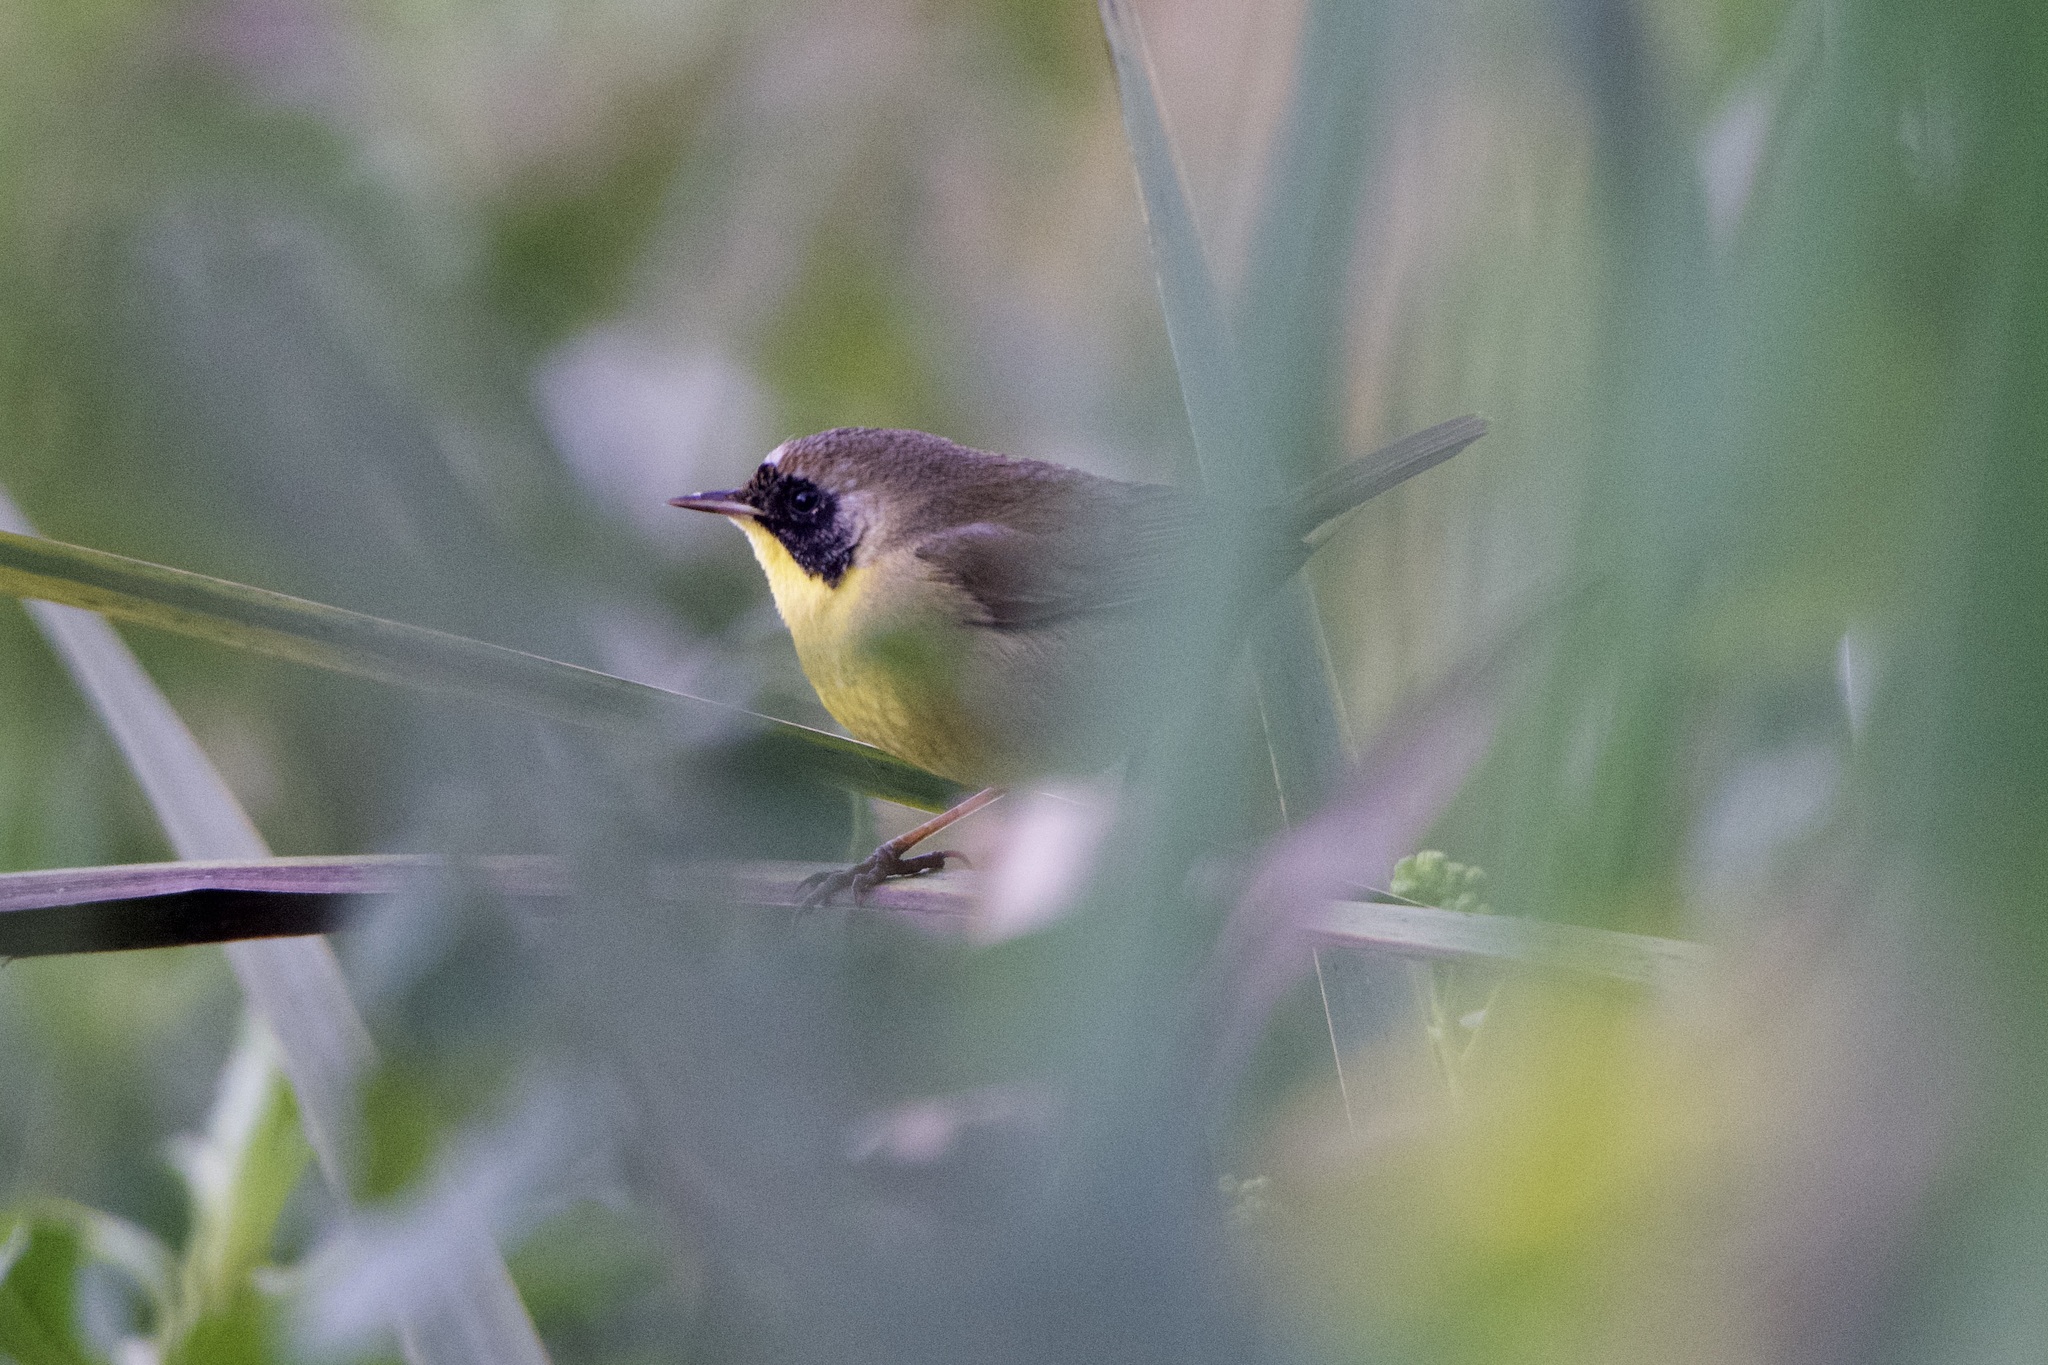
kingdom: Animalia
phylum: Chordata
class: Aves
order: Passeriformes
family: Parulidae
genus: Geothlypis
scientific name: Geothlypis trichas
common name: Common yellowthroat
